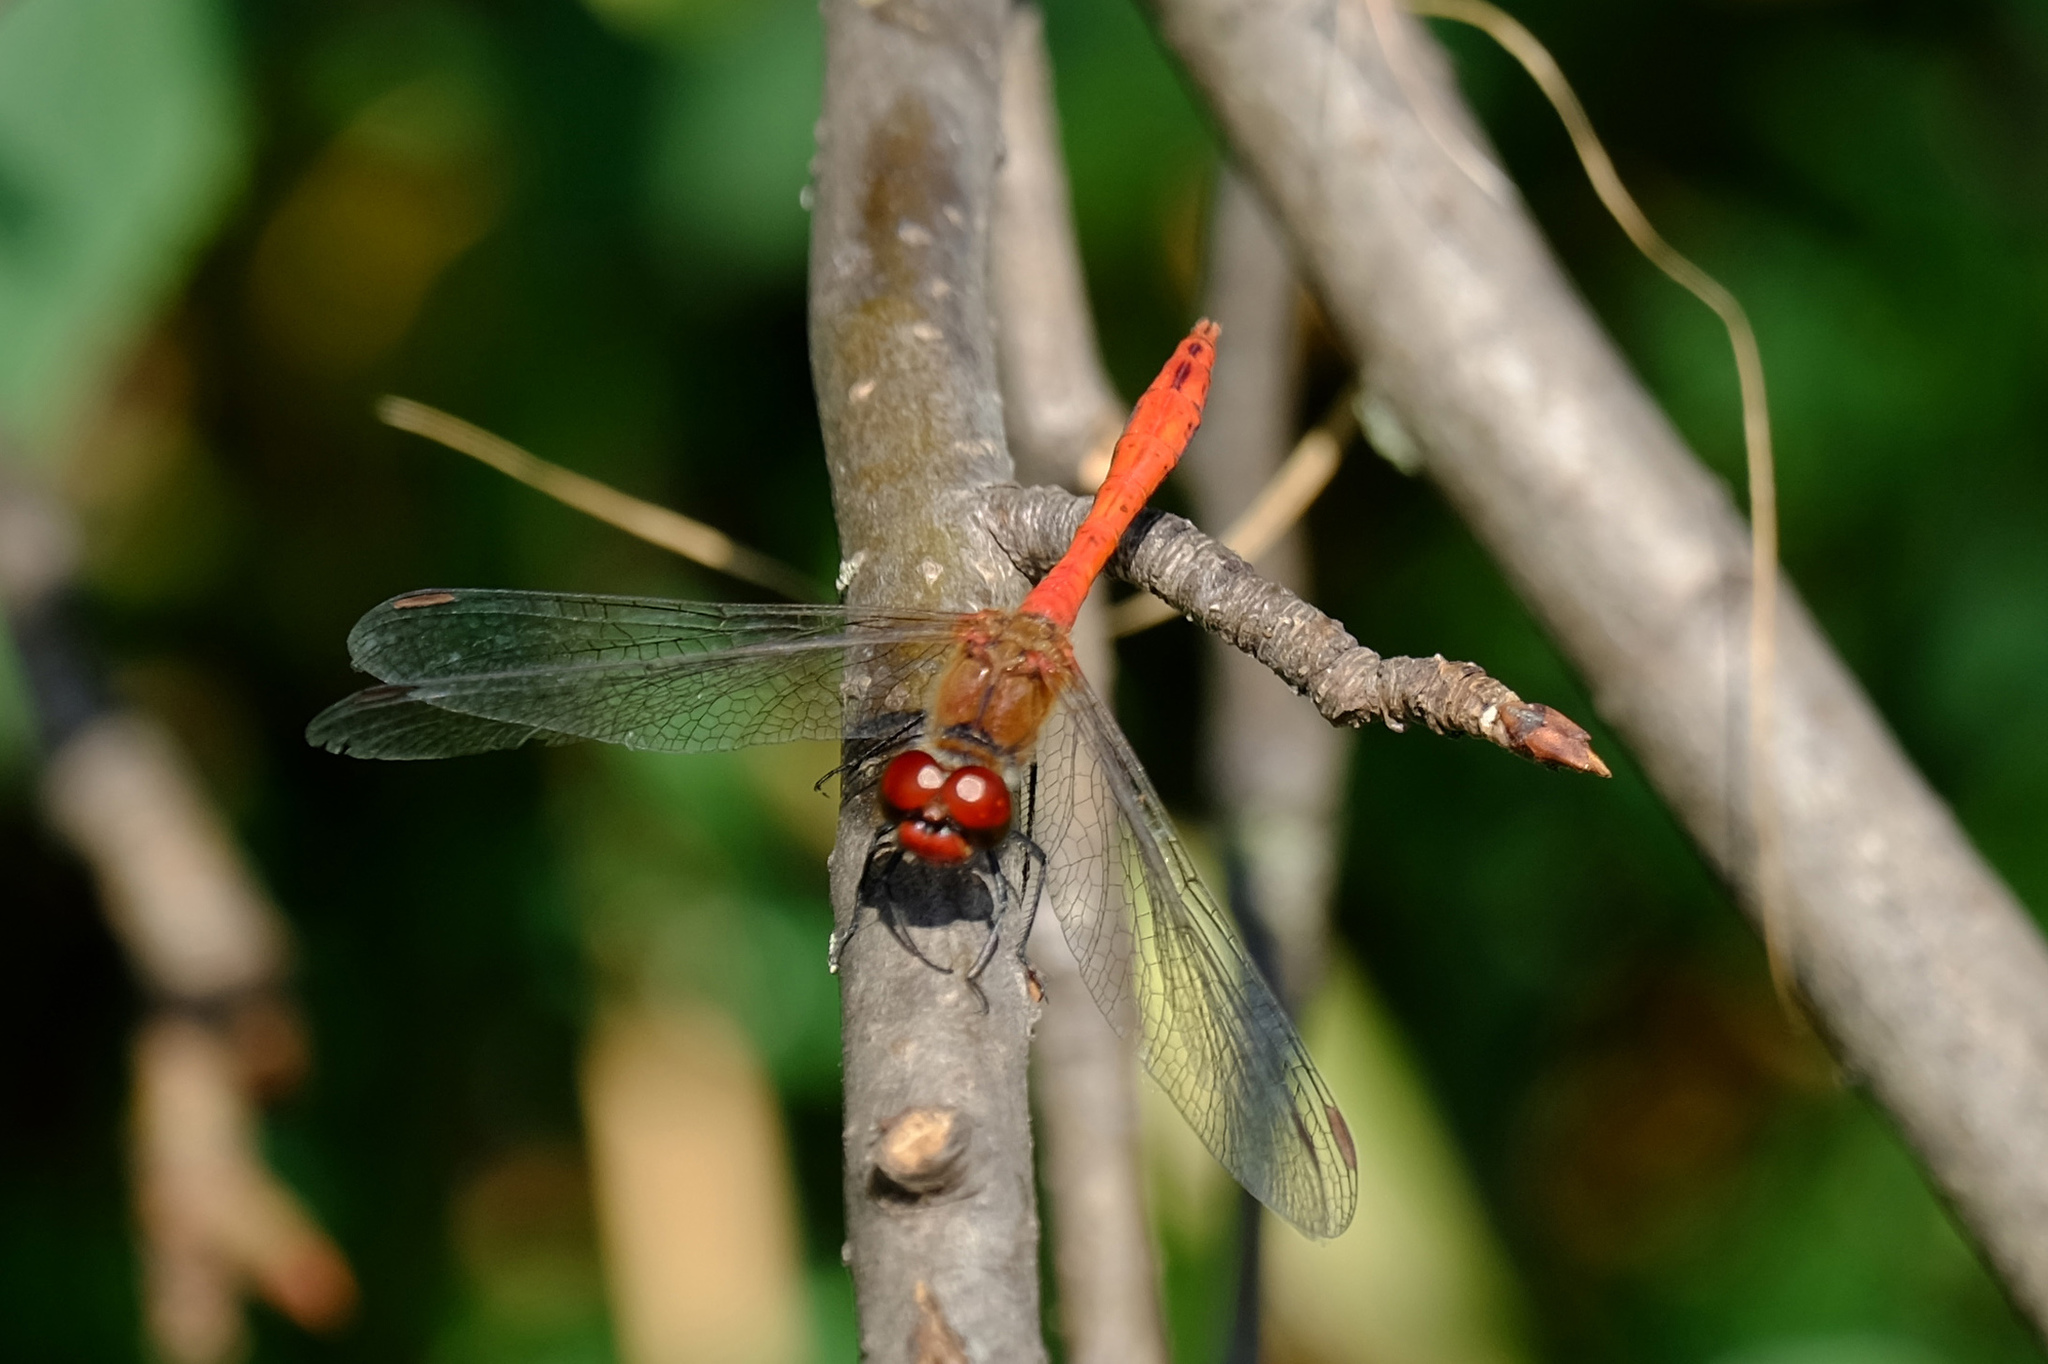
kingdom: Animalia
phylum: Arthropoda
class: Insecta
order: Odonata
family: Libellulidae
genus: Sympetrum
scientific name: Sympetrum sanguineum
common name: Ruddy darter
